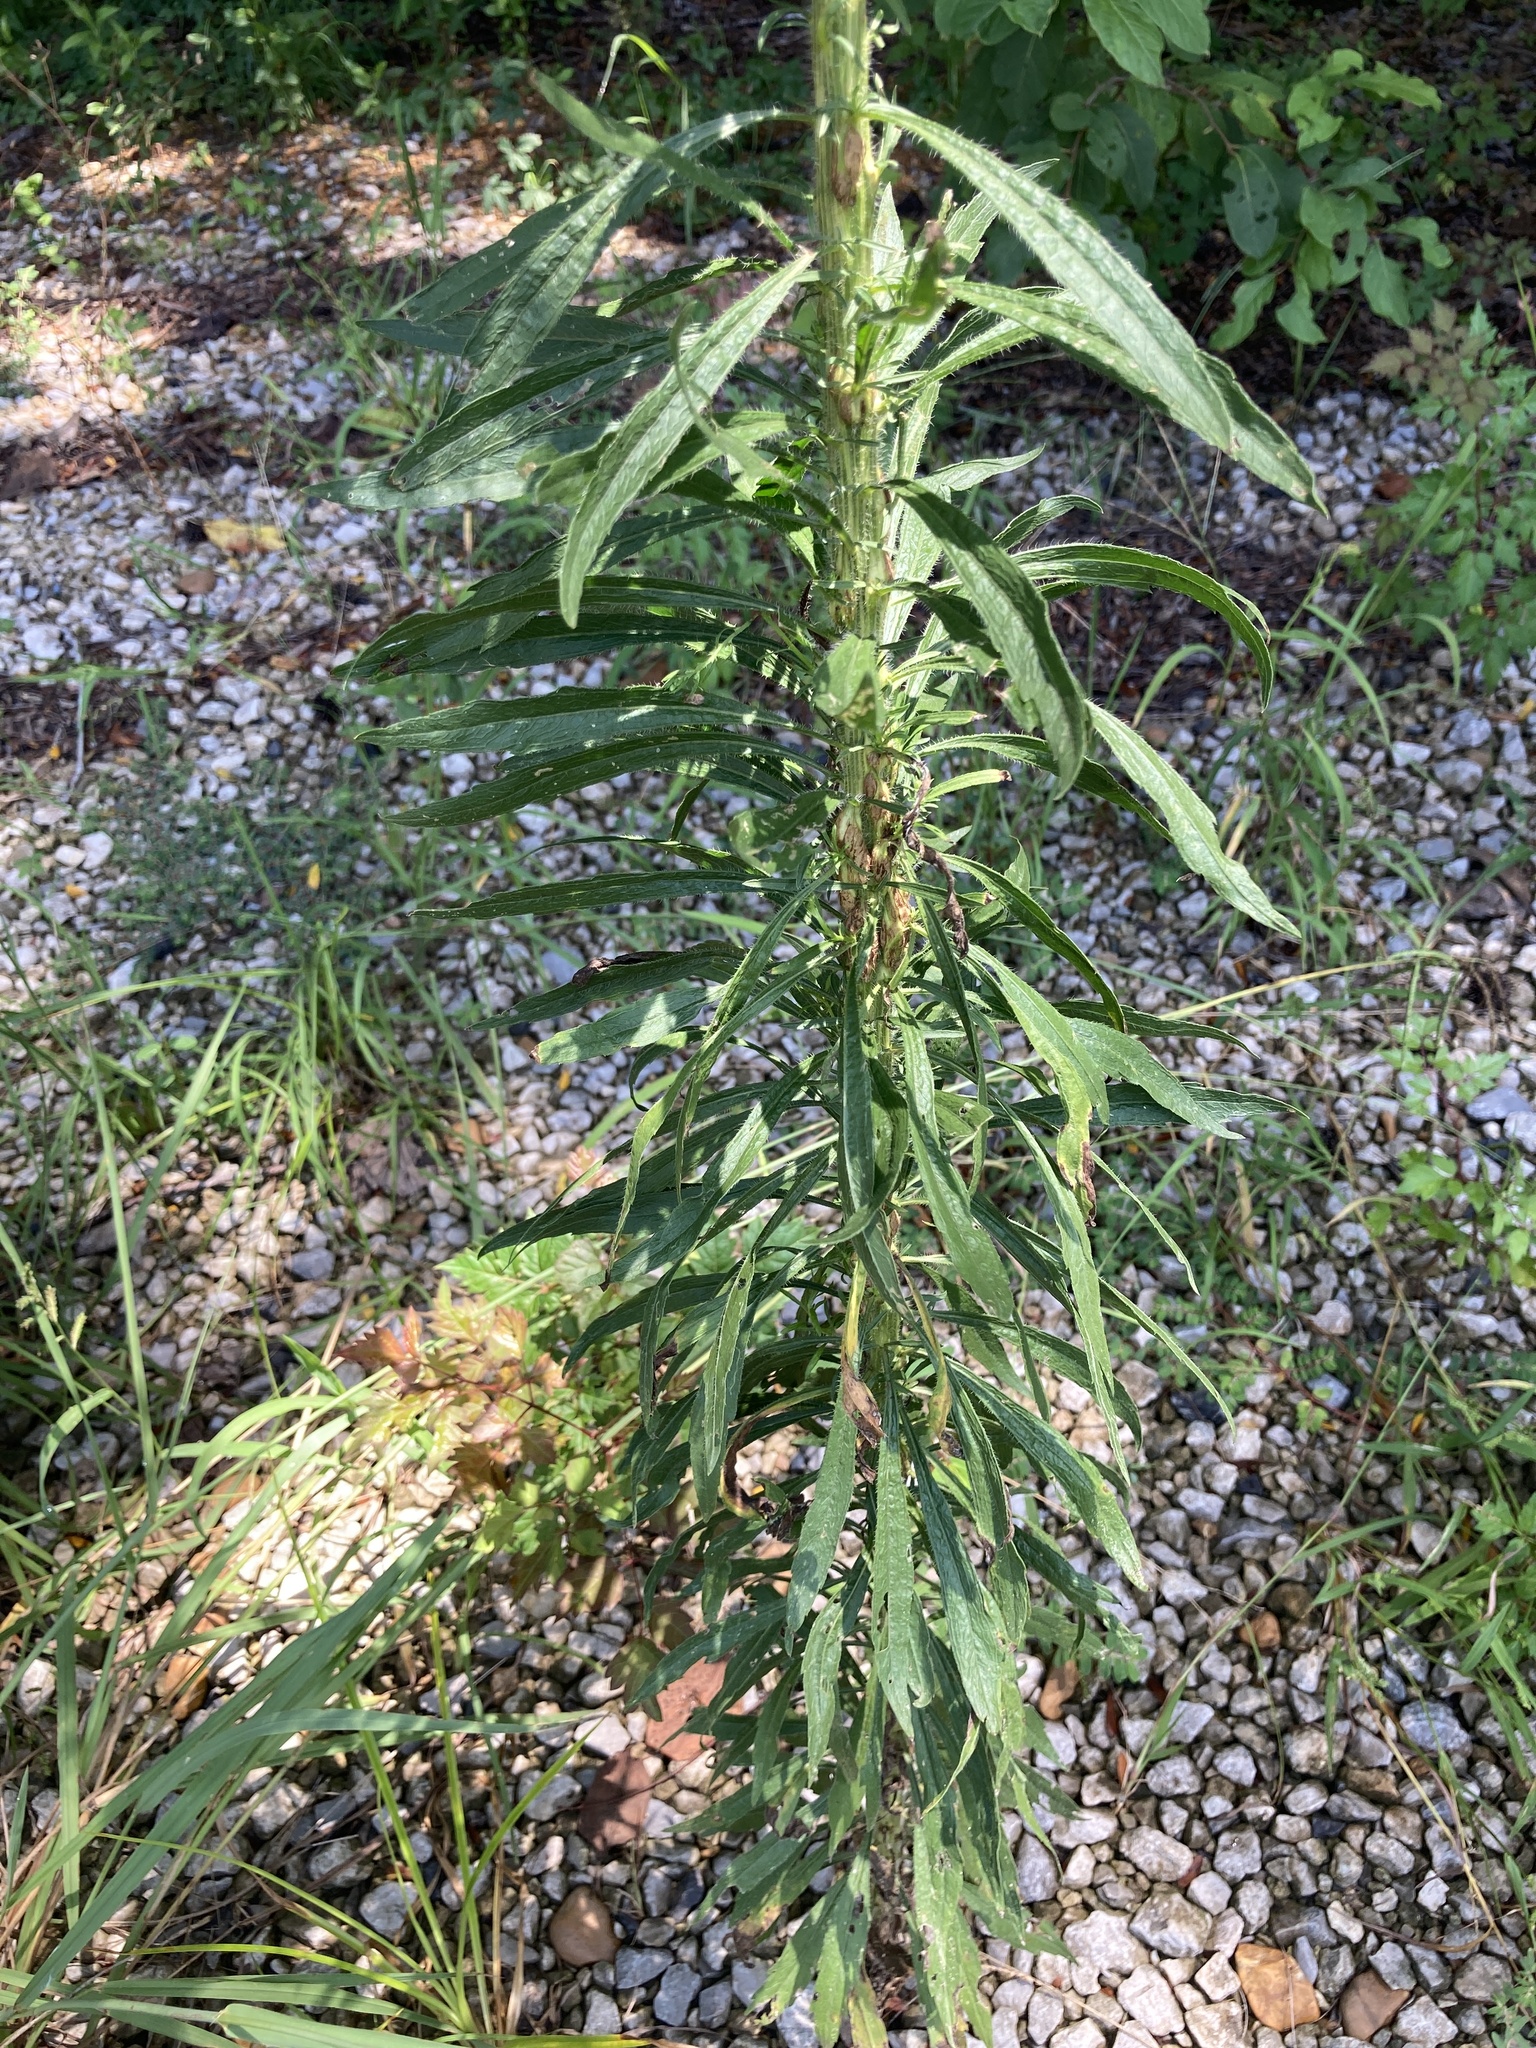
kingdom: Plantae
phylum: Tracheophyta
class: Magnoliopsida
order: Asterales
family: Asteraceae
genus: Erigeron
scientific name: Erigeron canadensis
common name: Canadian fleabane
